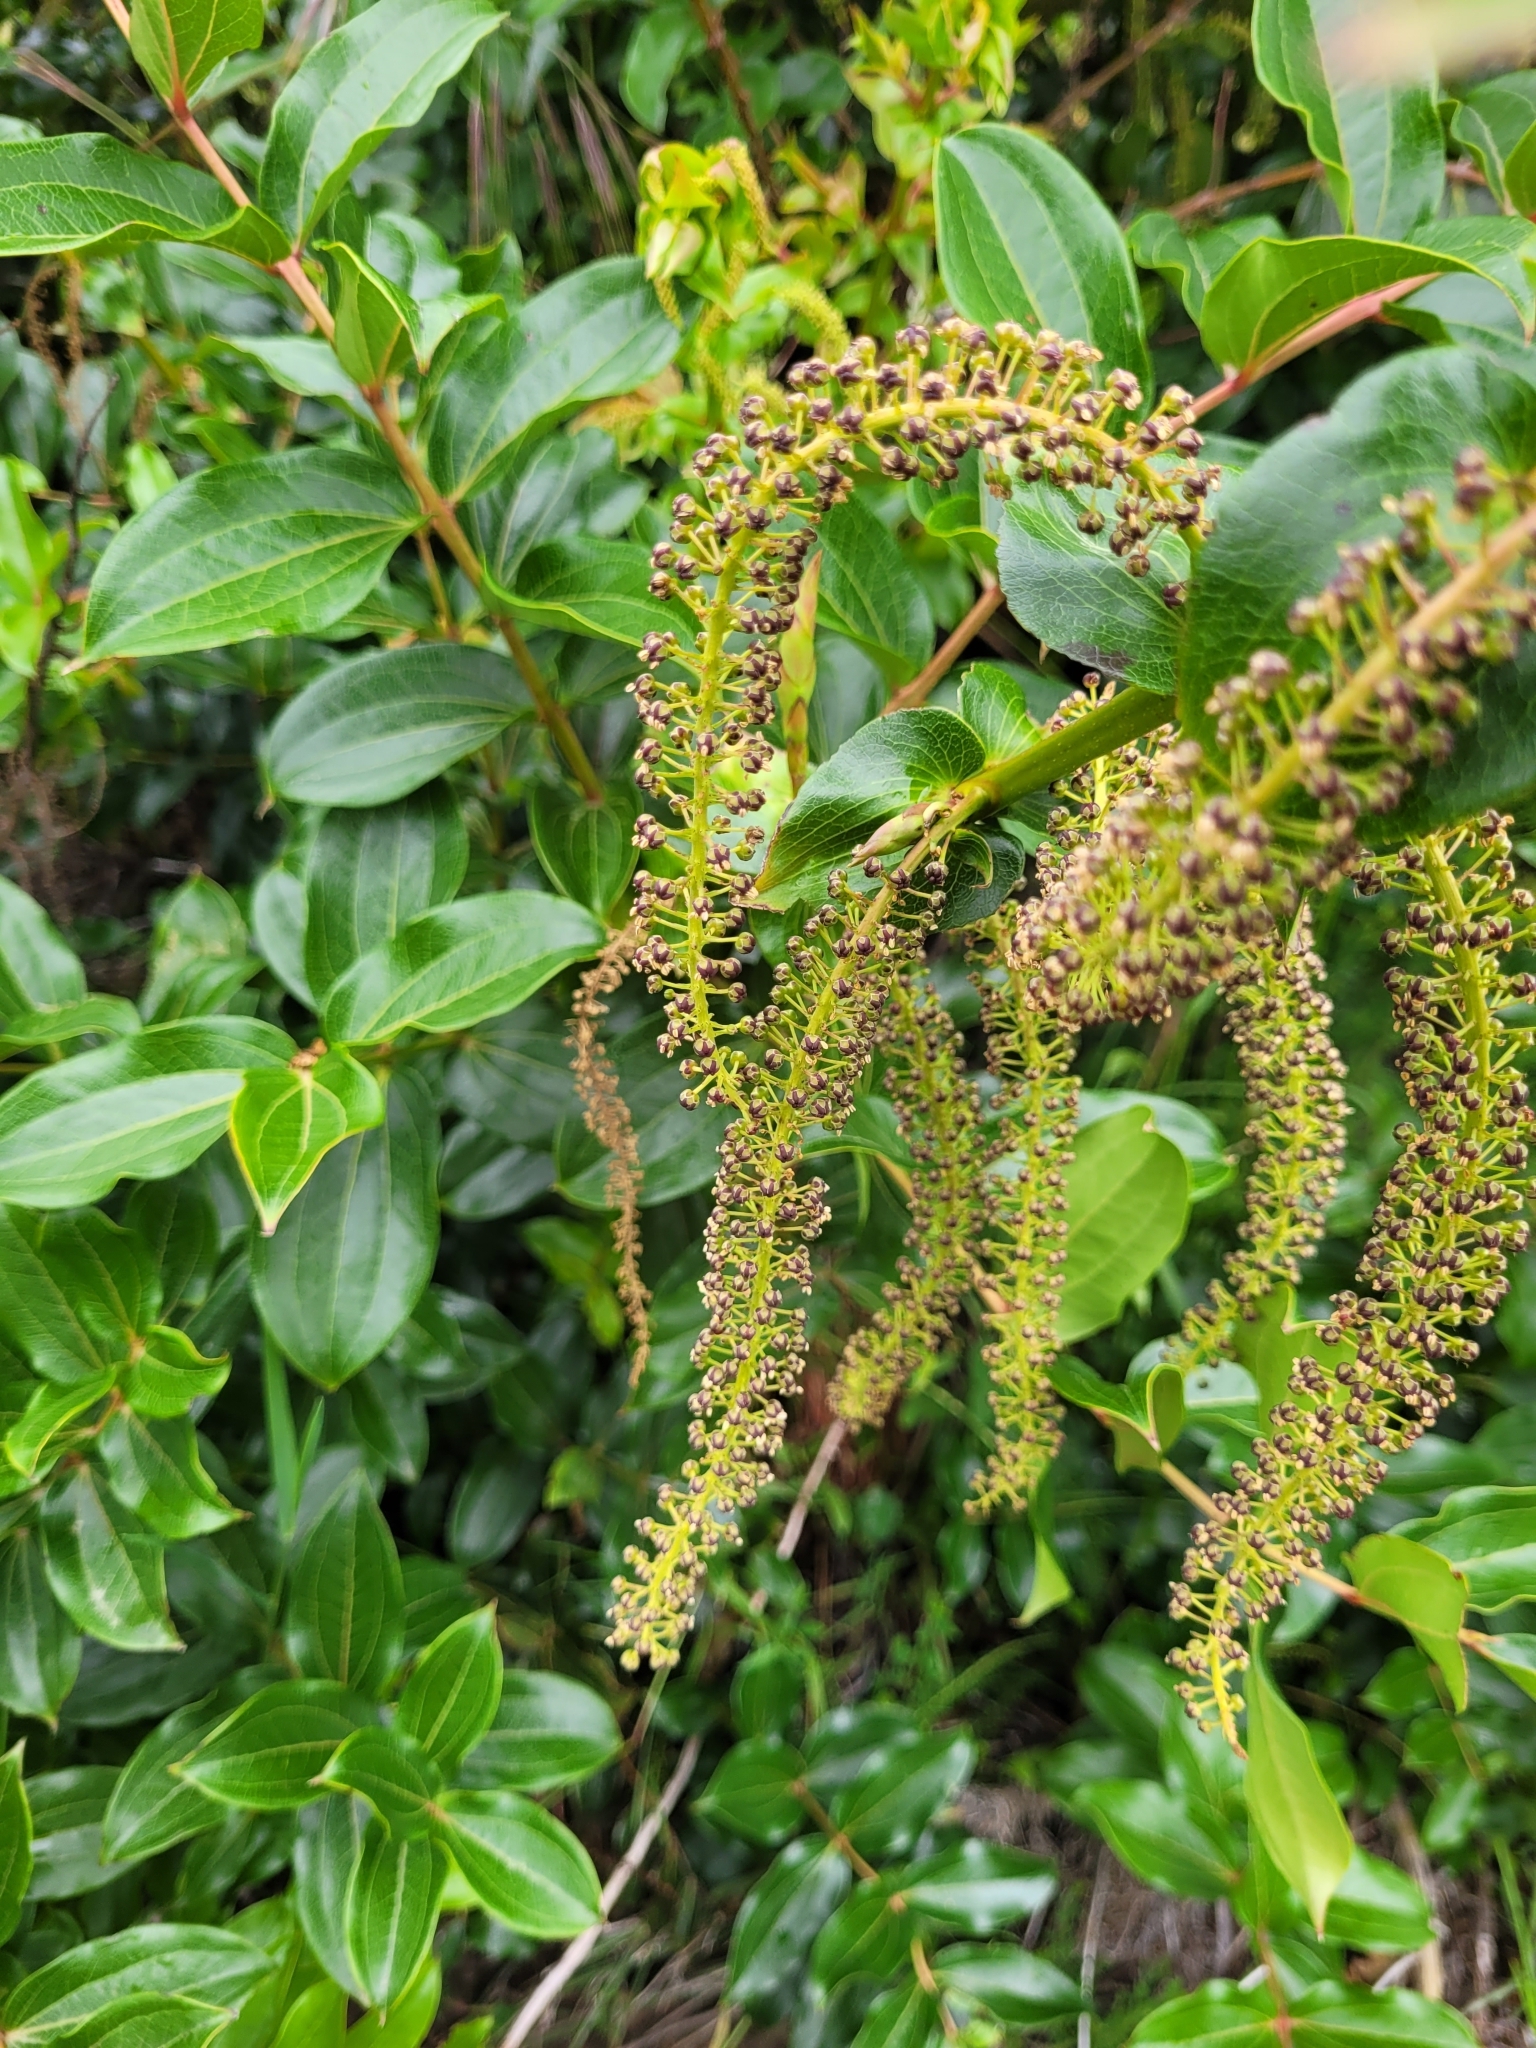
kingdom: Plantae
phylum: Tracheophyta
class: Magnoliopsida
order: Cucurbitales
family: Coriariaceae
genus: Coriaria
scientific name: Coriaria arborea
